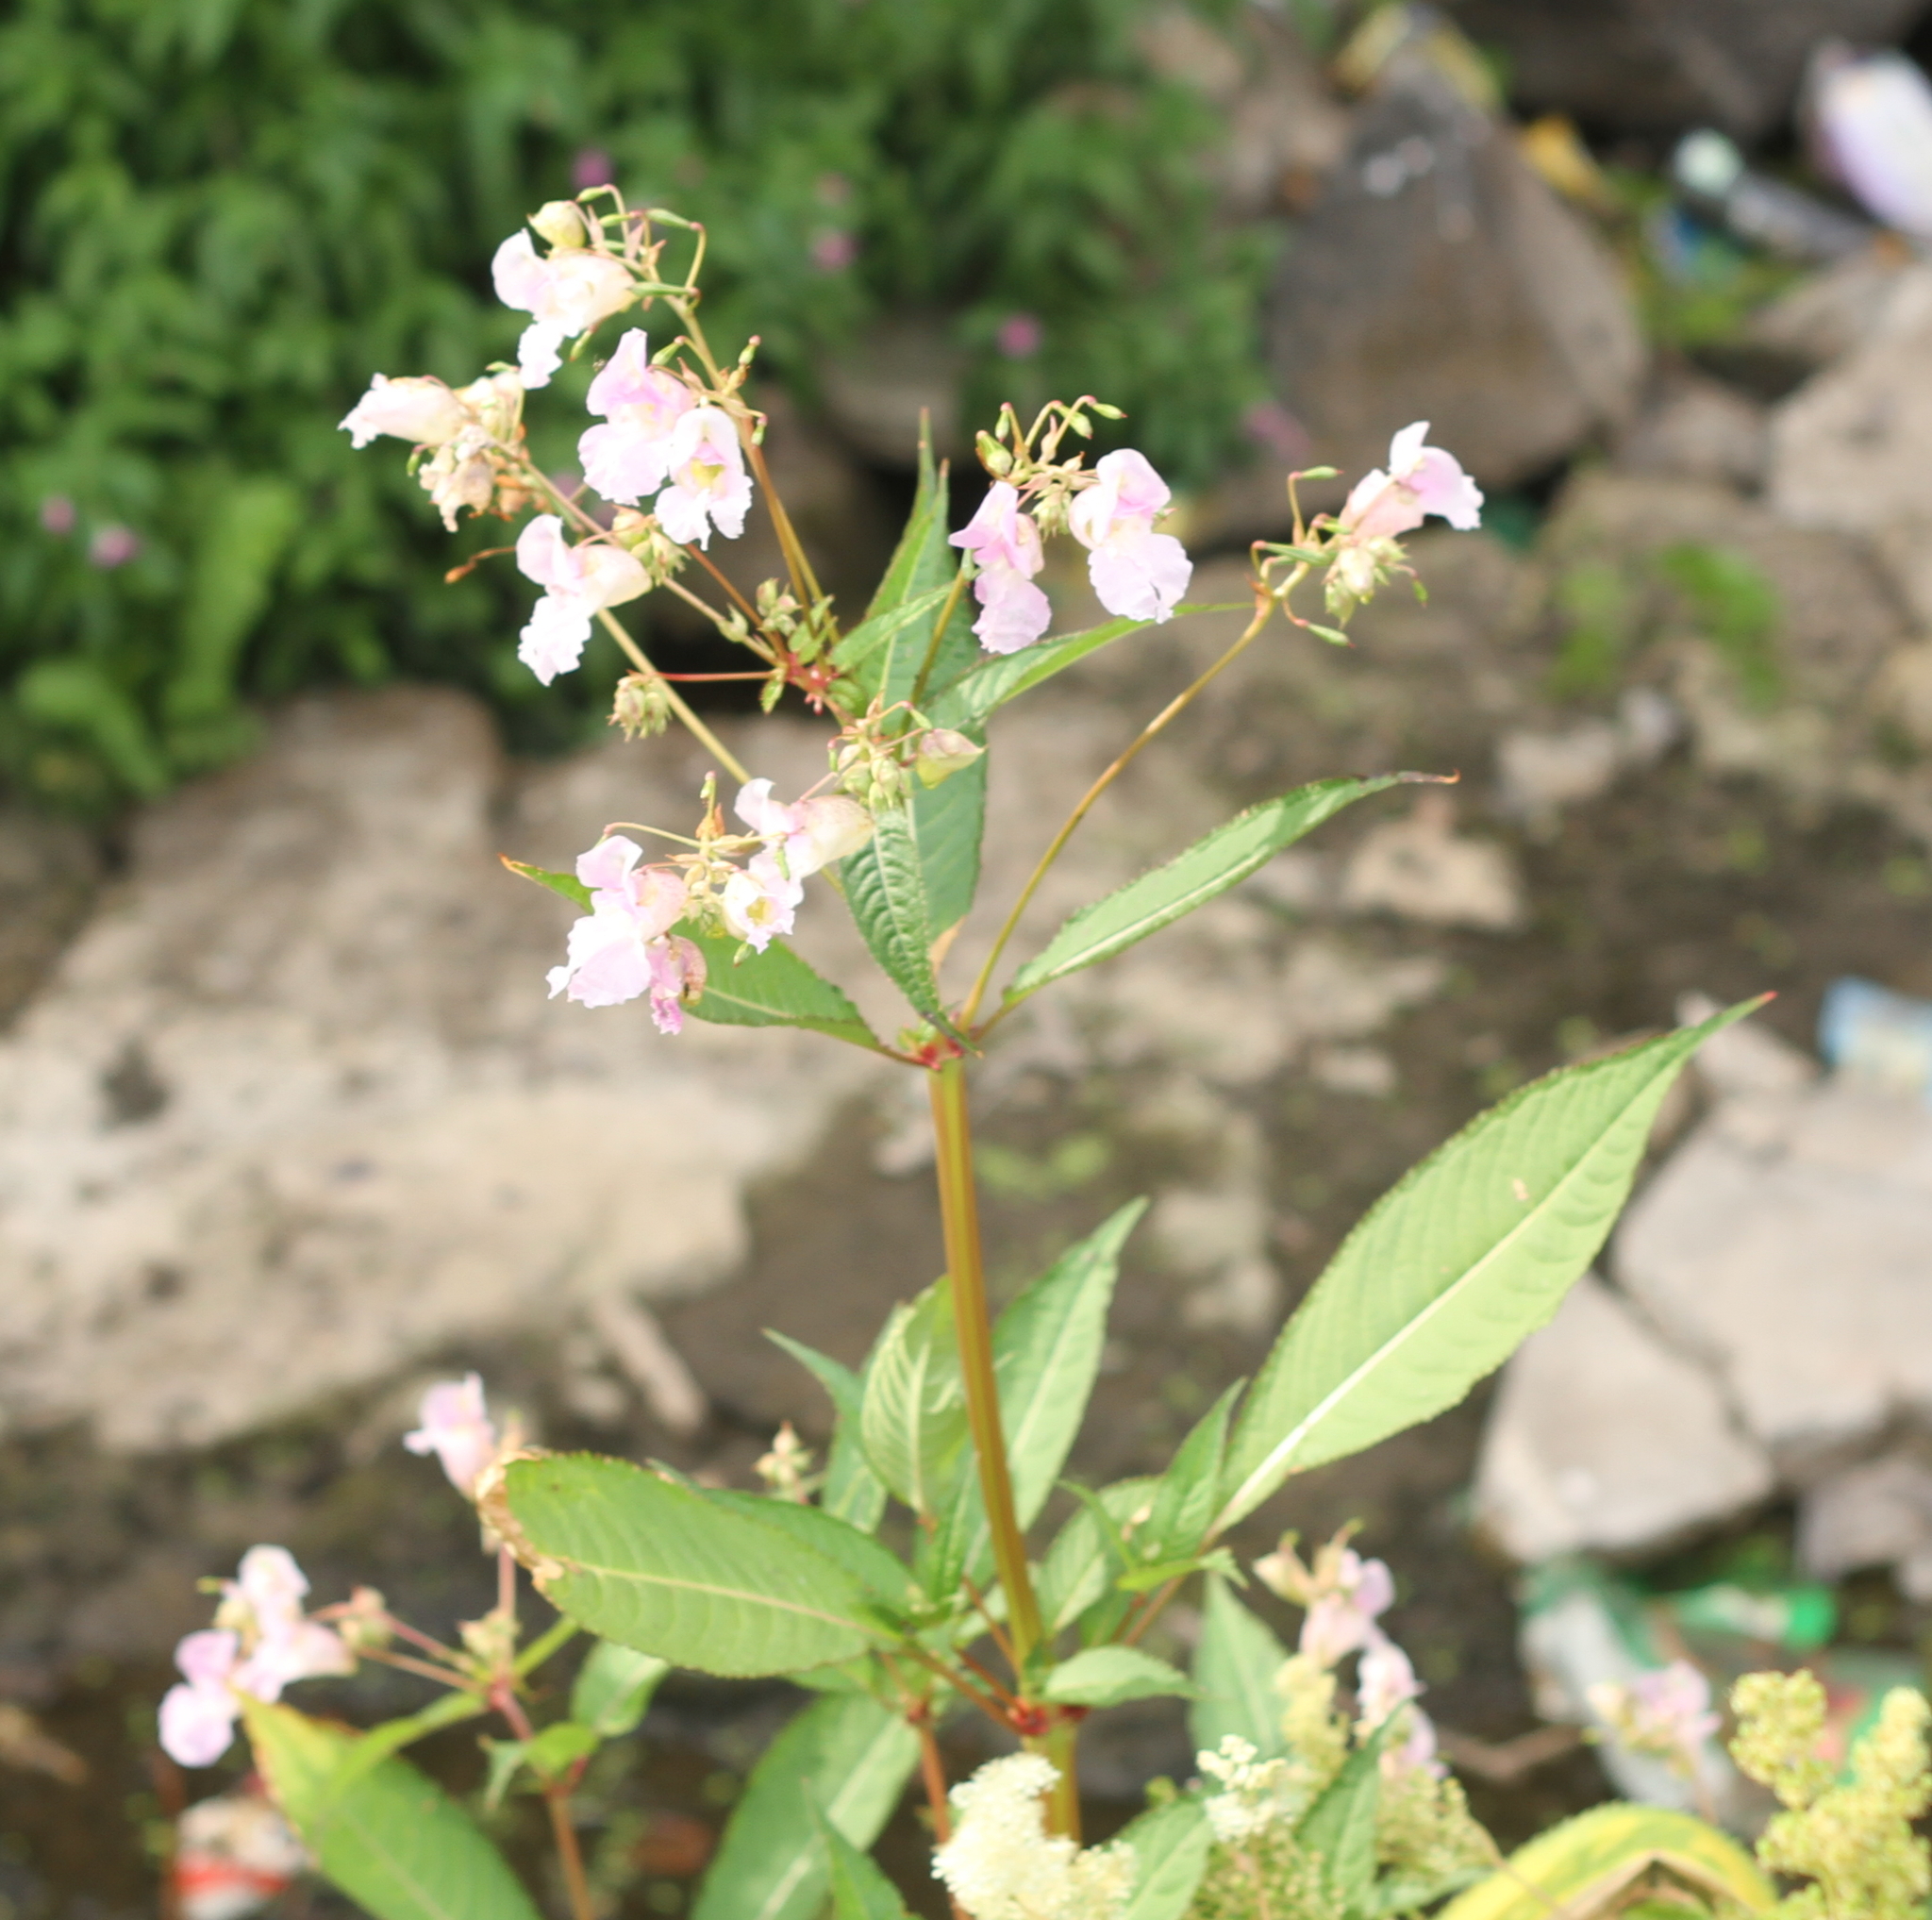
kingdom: Plantae
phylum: Tracheophyta
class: Magnoliopsida
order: Ericales
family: Balsaminaceae
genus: Impatiens
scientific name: Impatiens glandulifera
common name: Himalayan balsam
